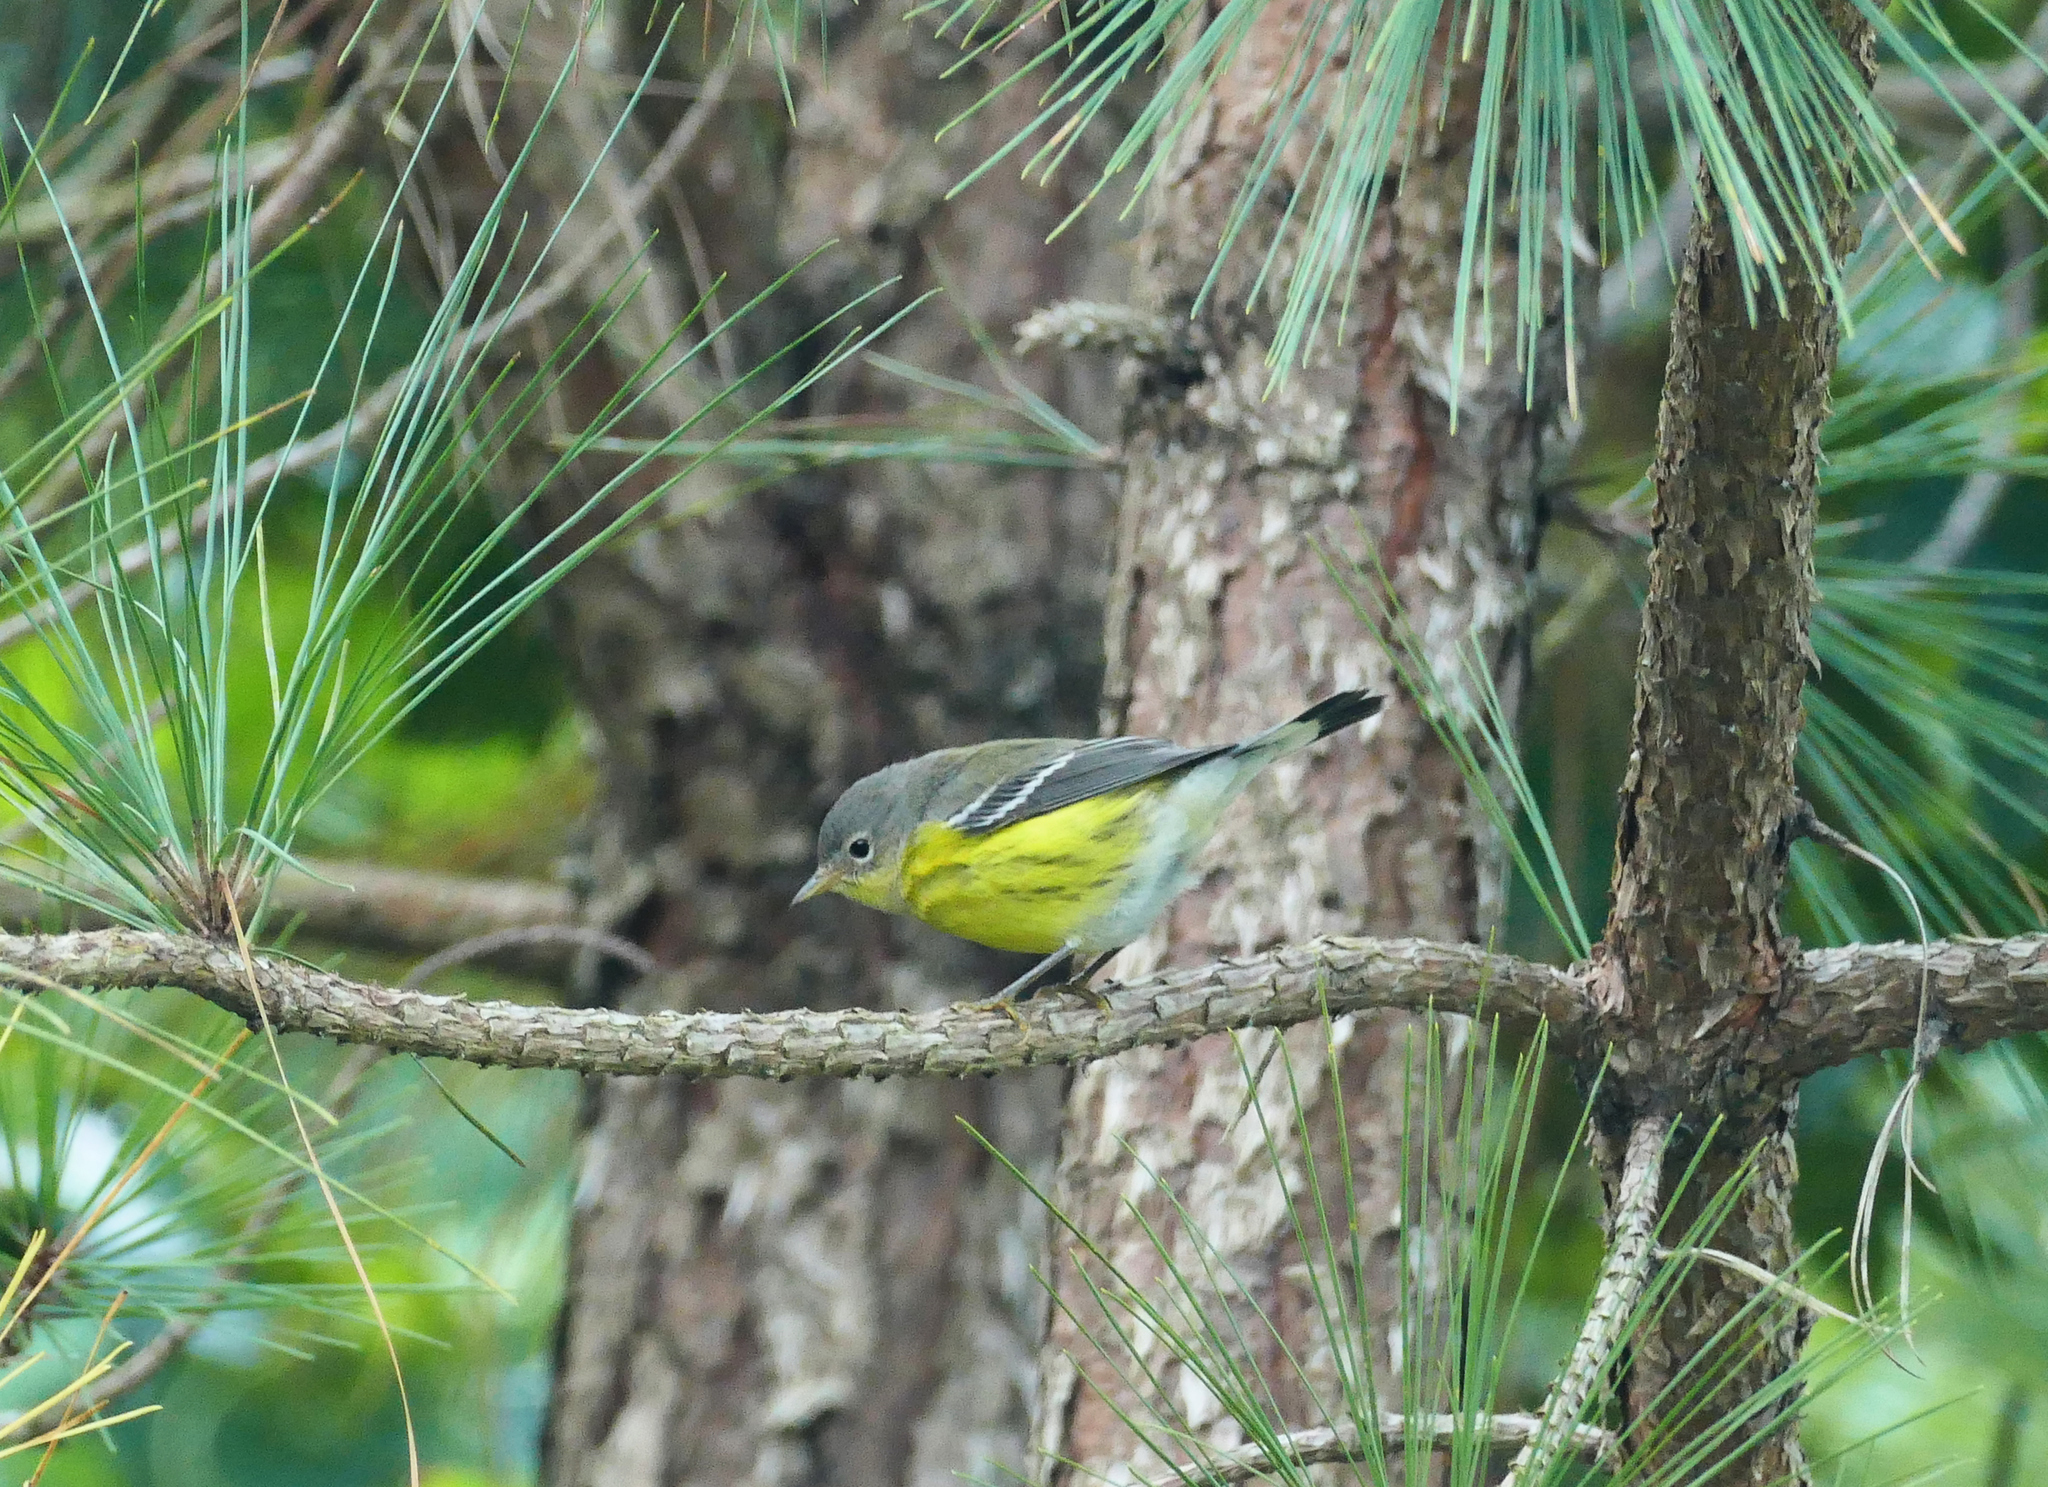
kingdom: Animalia
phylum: Chordata
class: Aves
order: Passeriformes
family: Parulidae
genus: Setophaga
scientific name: Setophaga magnolia
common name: Magnolia warbler
